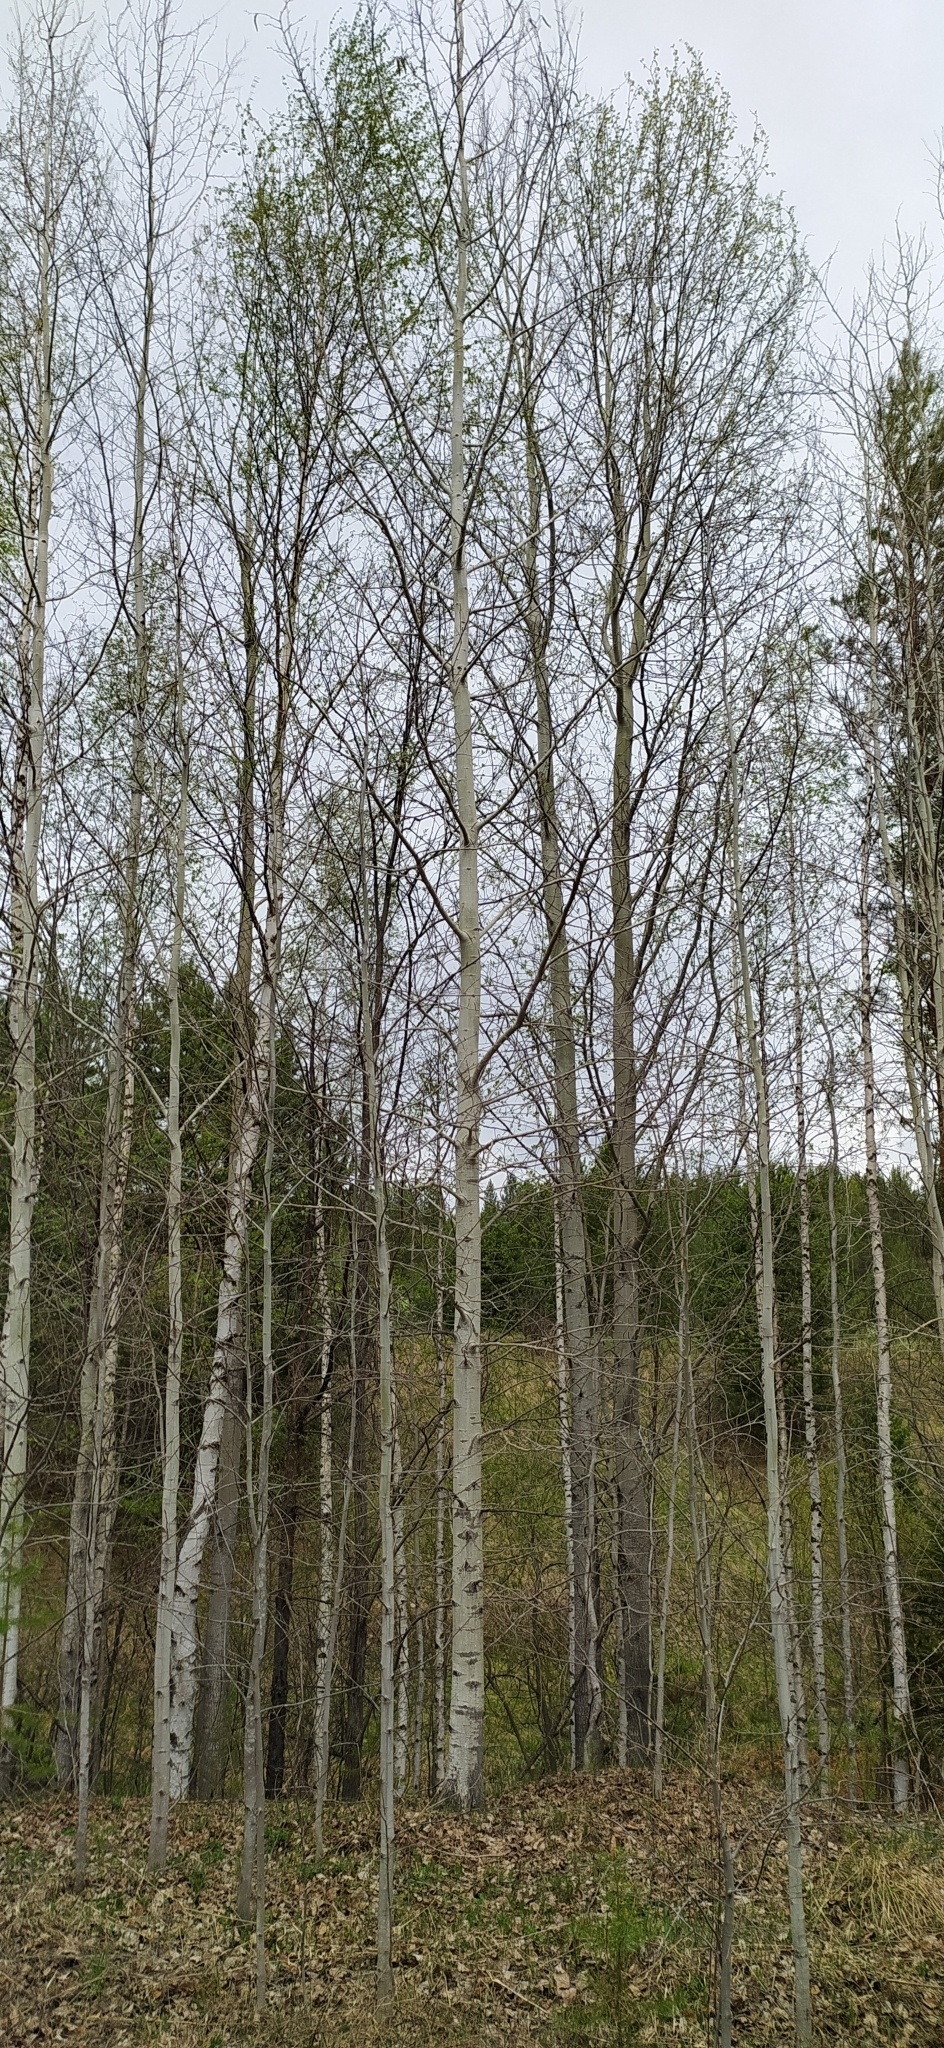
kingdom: Plantae
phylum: Tracheophyta
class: Magnoliopsida
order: Malpighiales
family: Salicaceae
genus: Populus
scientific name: Populus tremula
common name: European aspen
